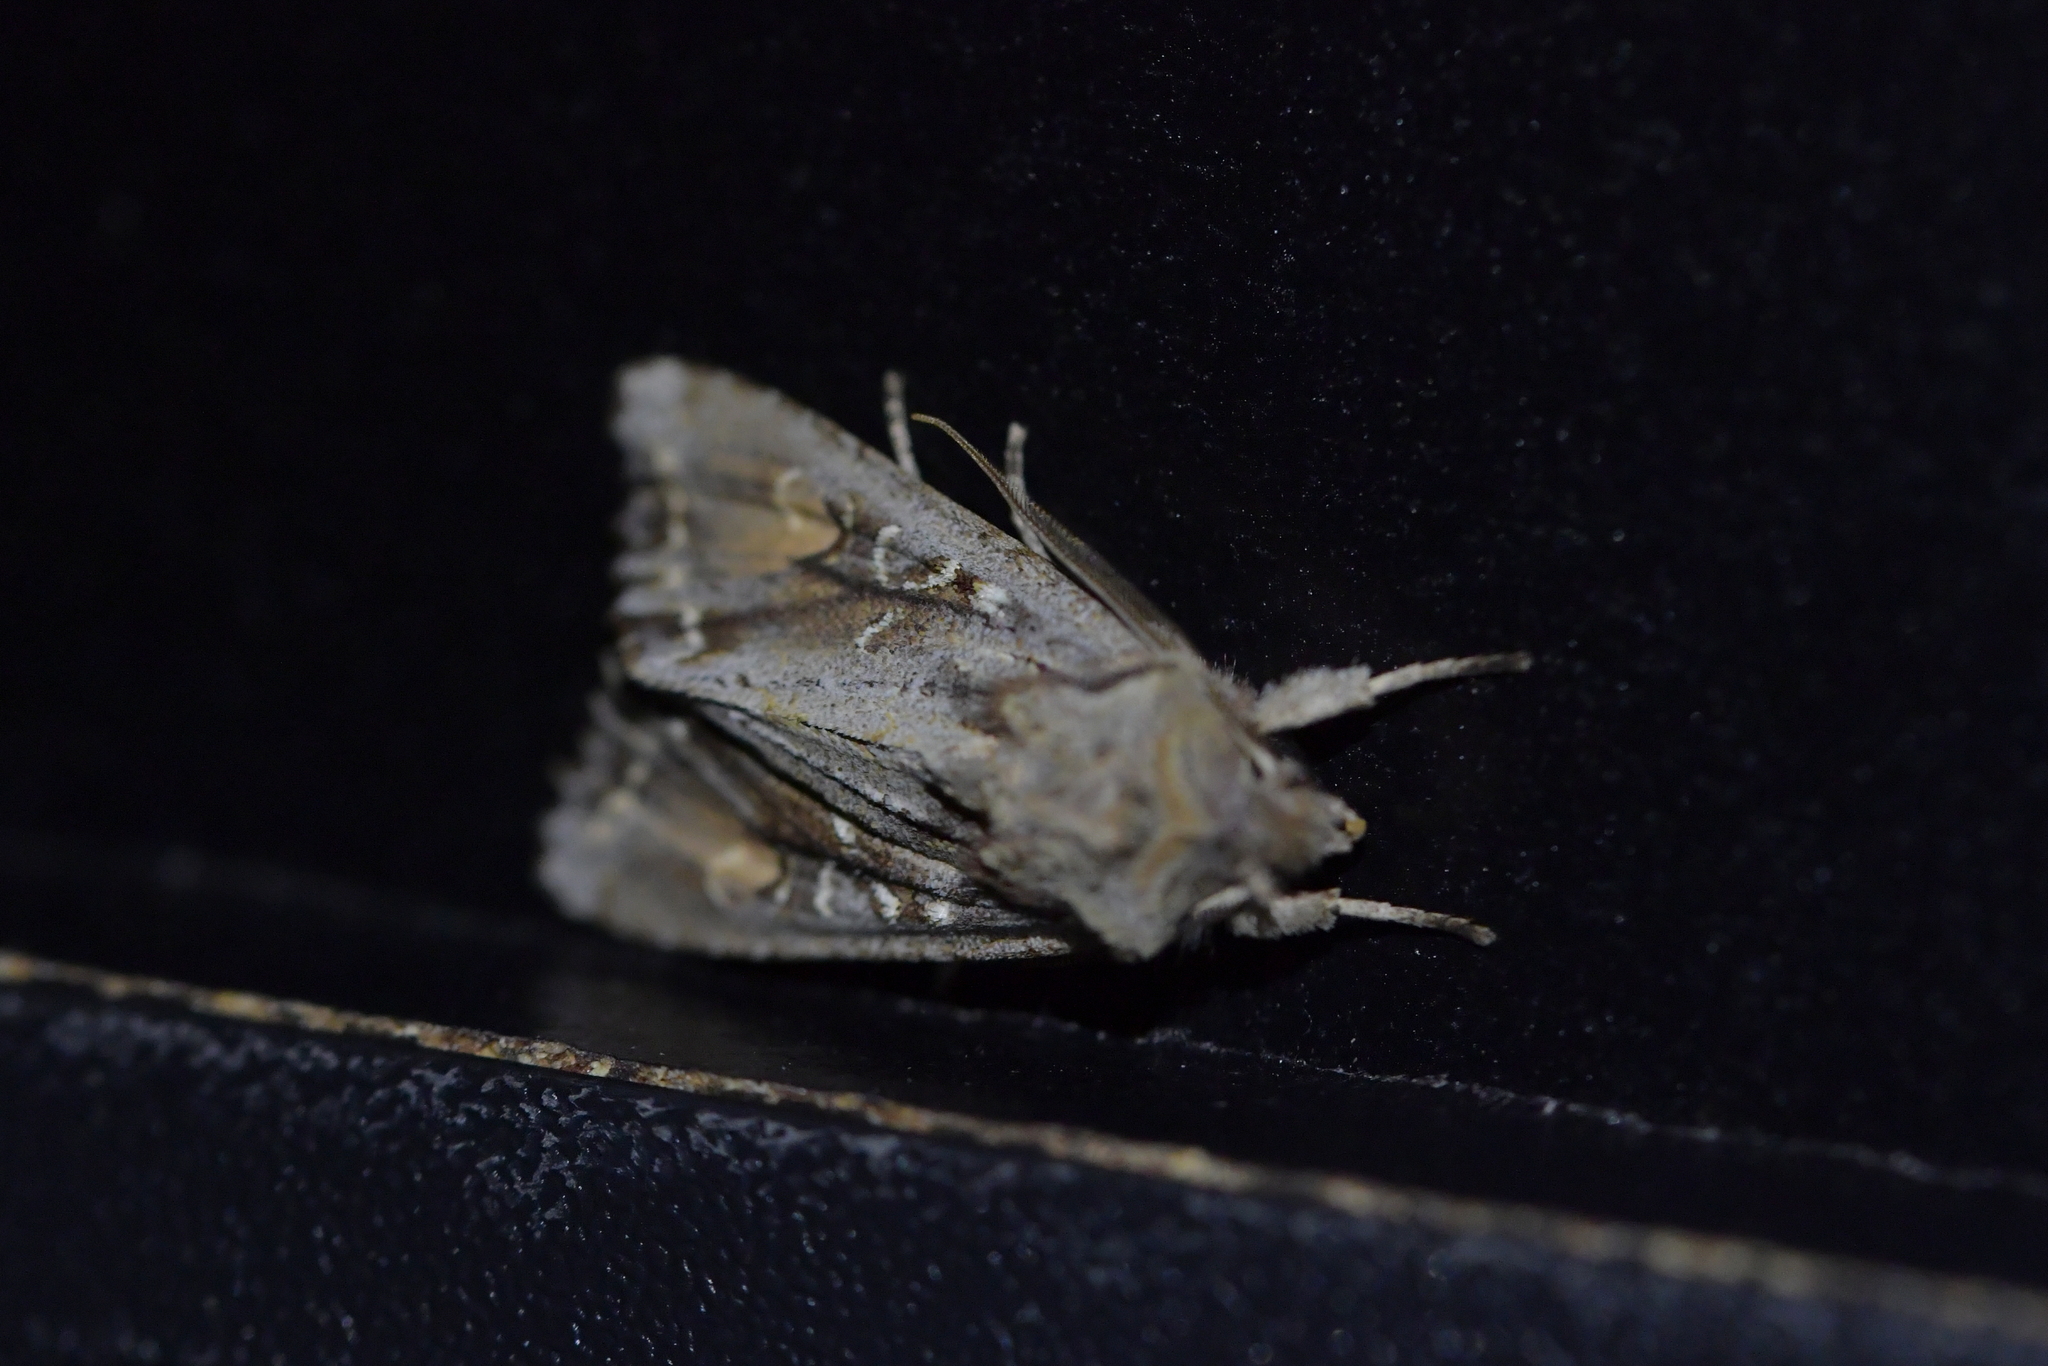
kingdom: Animalia
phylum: Arthropoda
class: Insecta
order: Lepidoptera
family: Noctuidae
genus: Ichneutica
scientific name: Ichneutica
